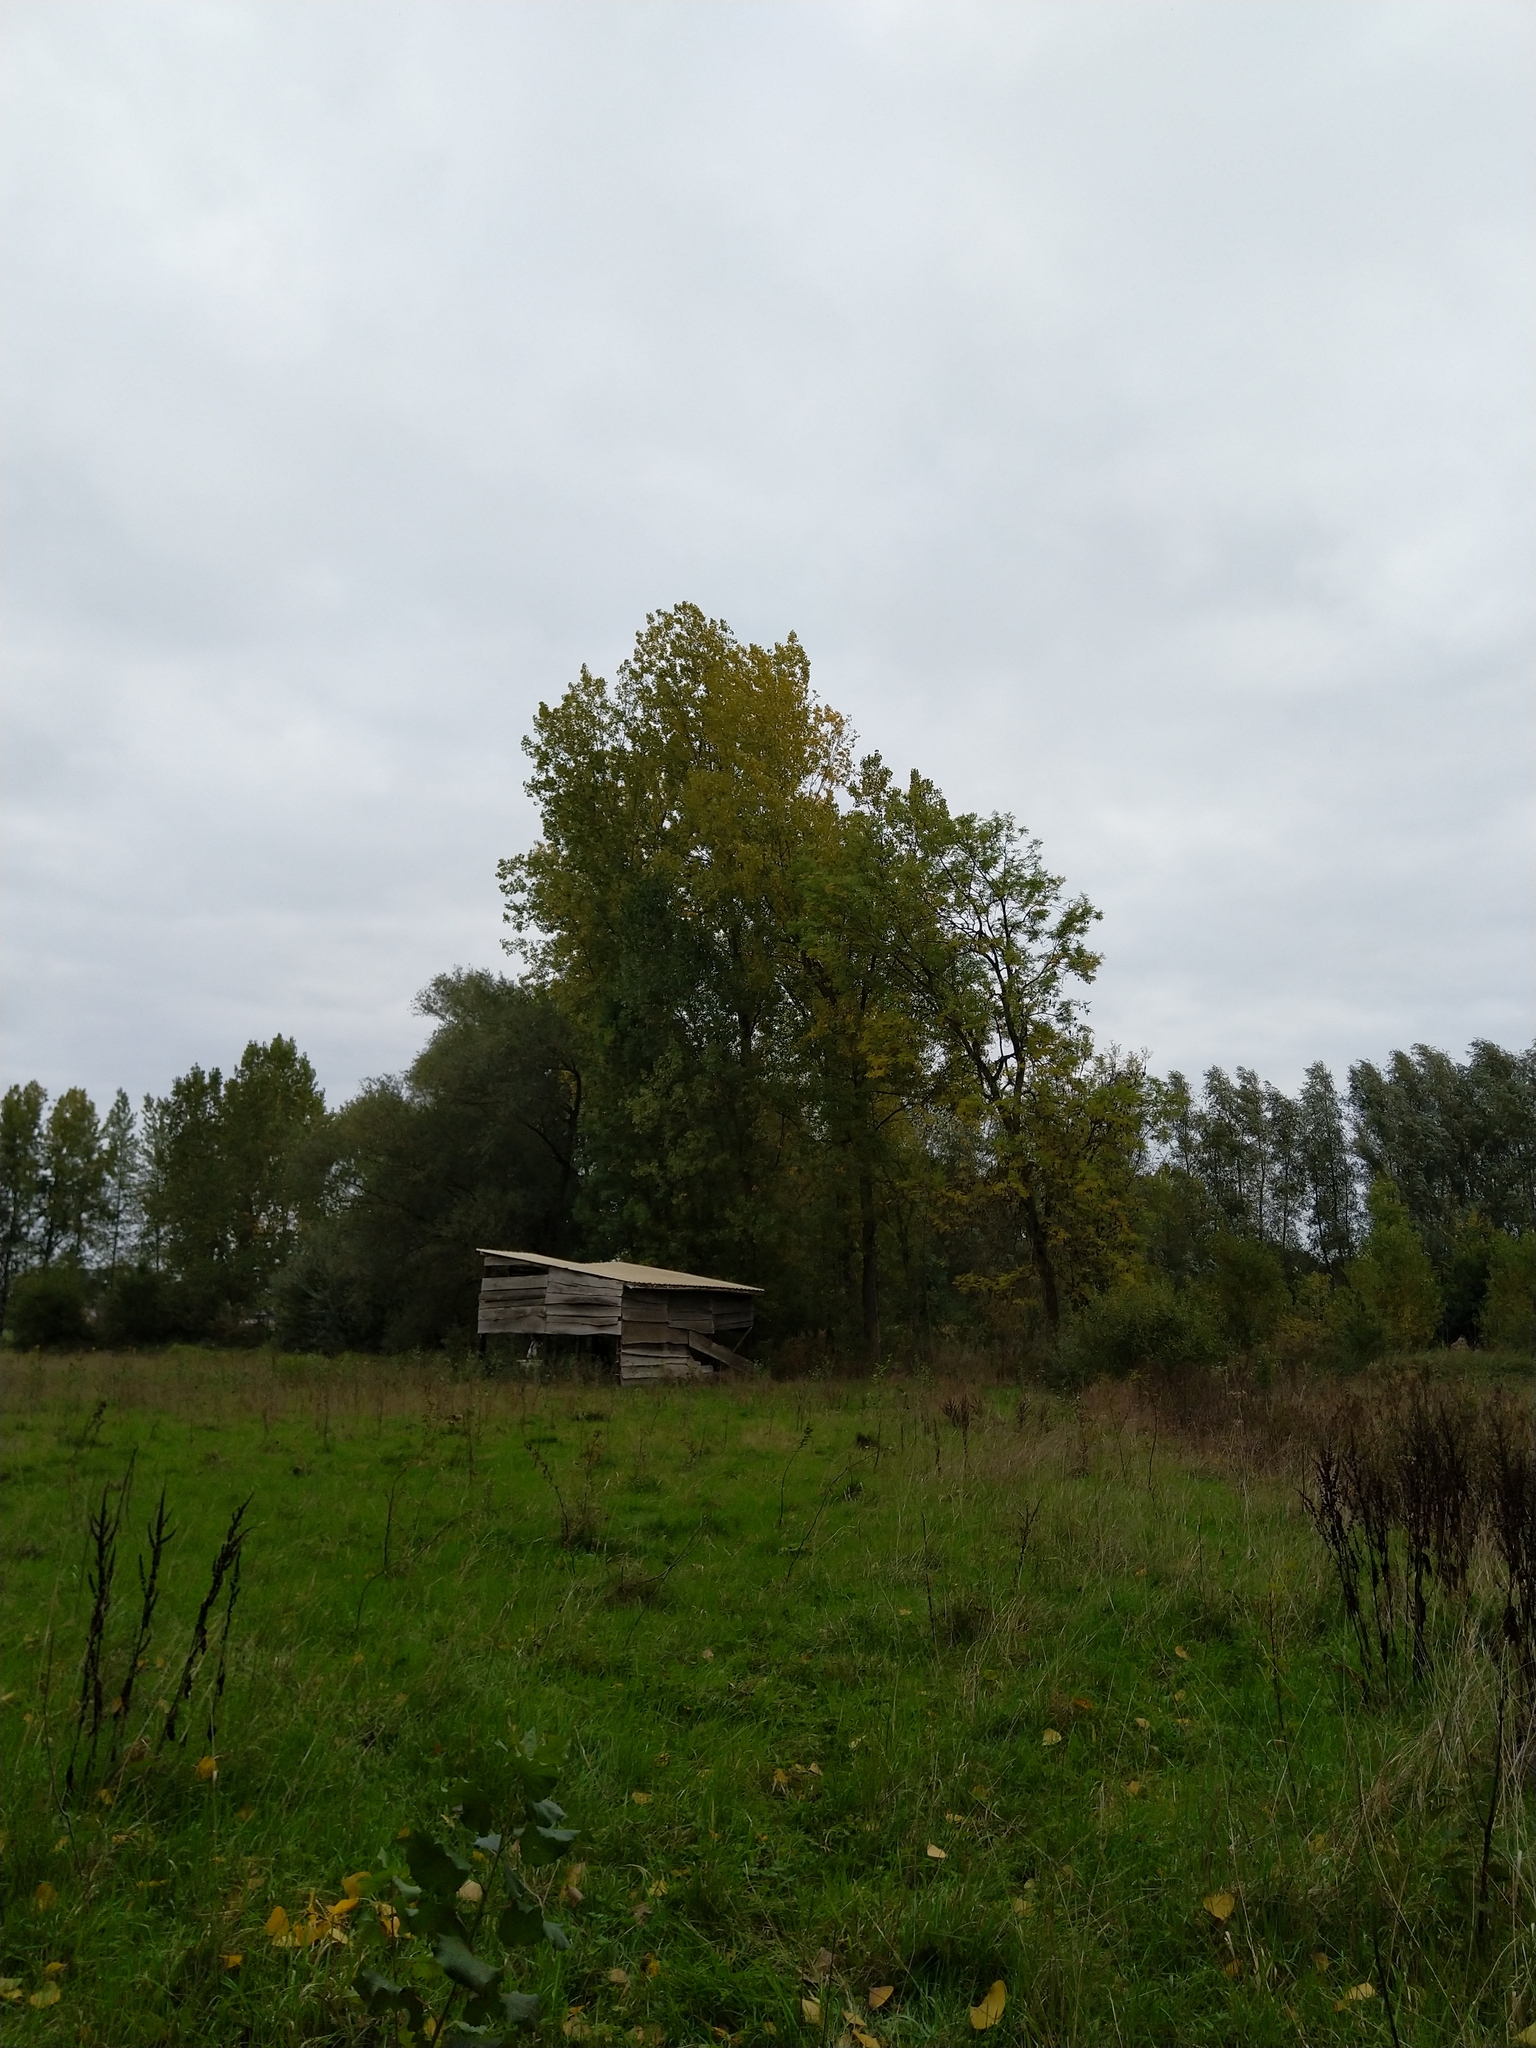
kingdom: Animalia
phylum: Arthropoda
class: Insecta
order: Hymenoptera
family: Vespidae
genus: Vespa
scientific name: Vespa velutina
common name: Asian hornet
